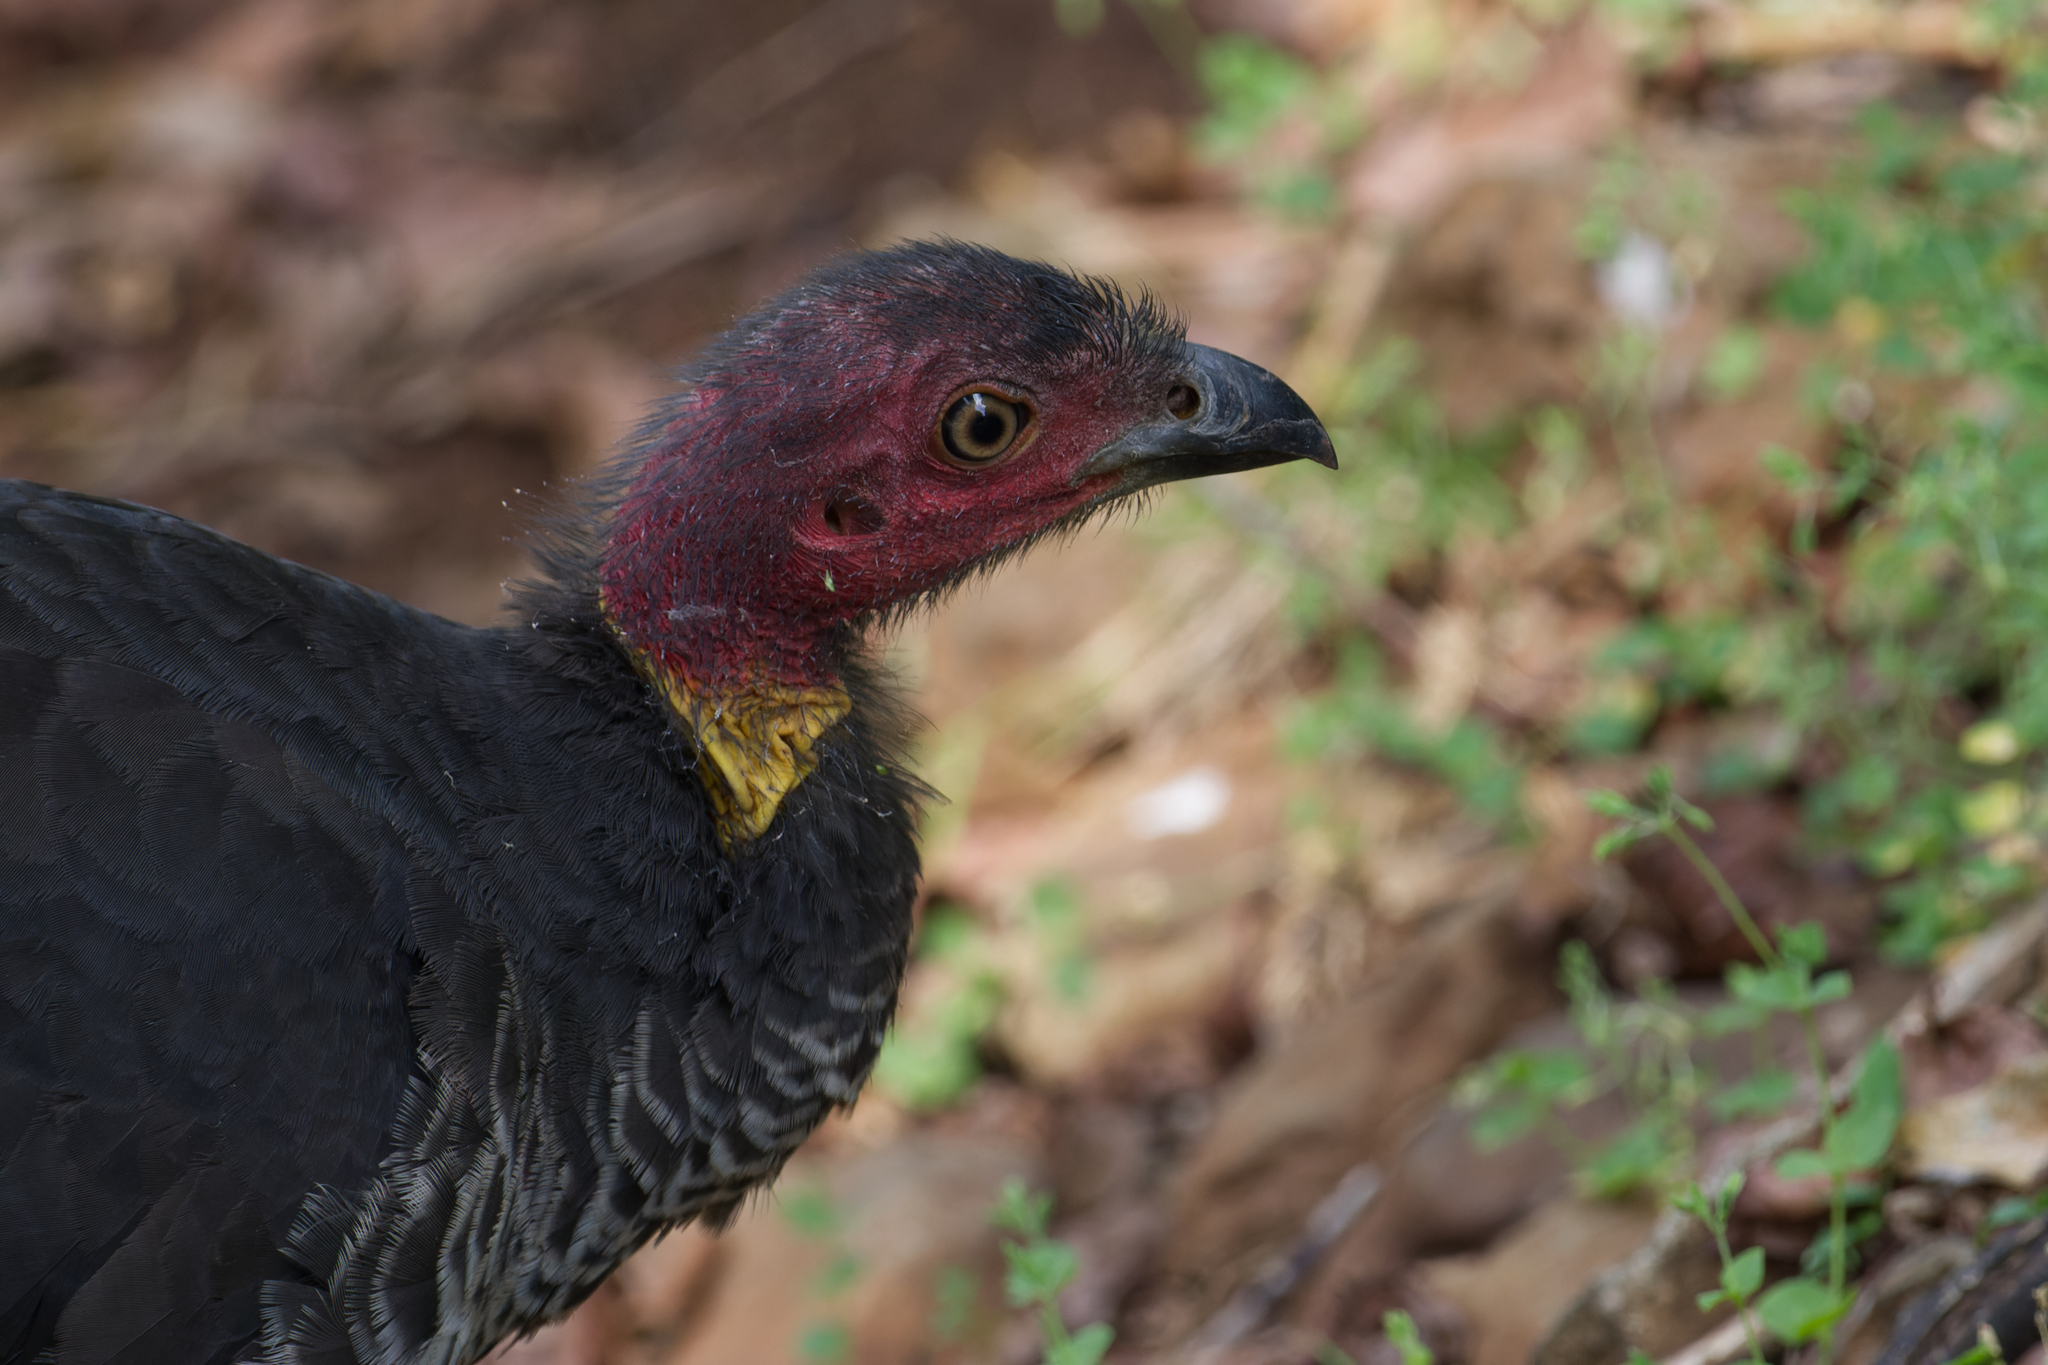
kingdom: Animalia
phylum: Chordata
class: Aves
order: Galliformes
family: Megapodiidae
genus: Alectura
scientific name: Alectura lathami
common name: Australian brushturkey
